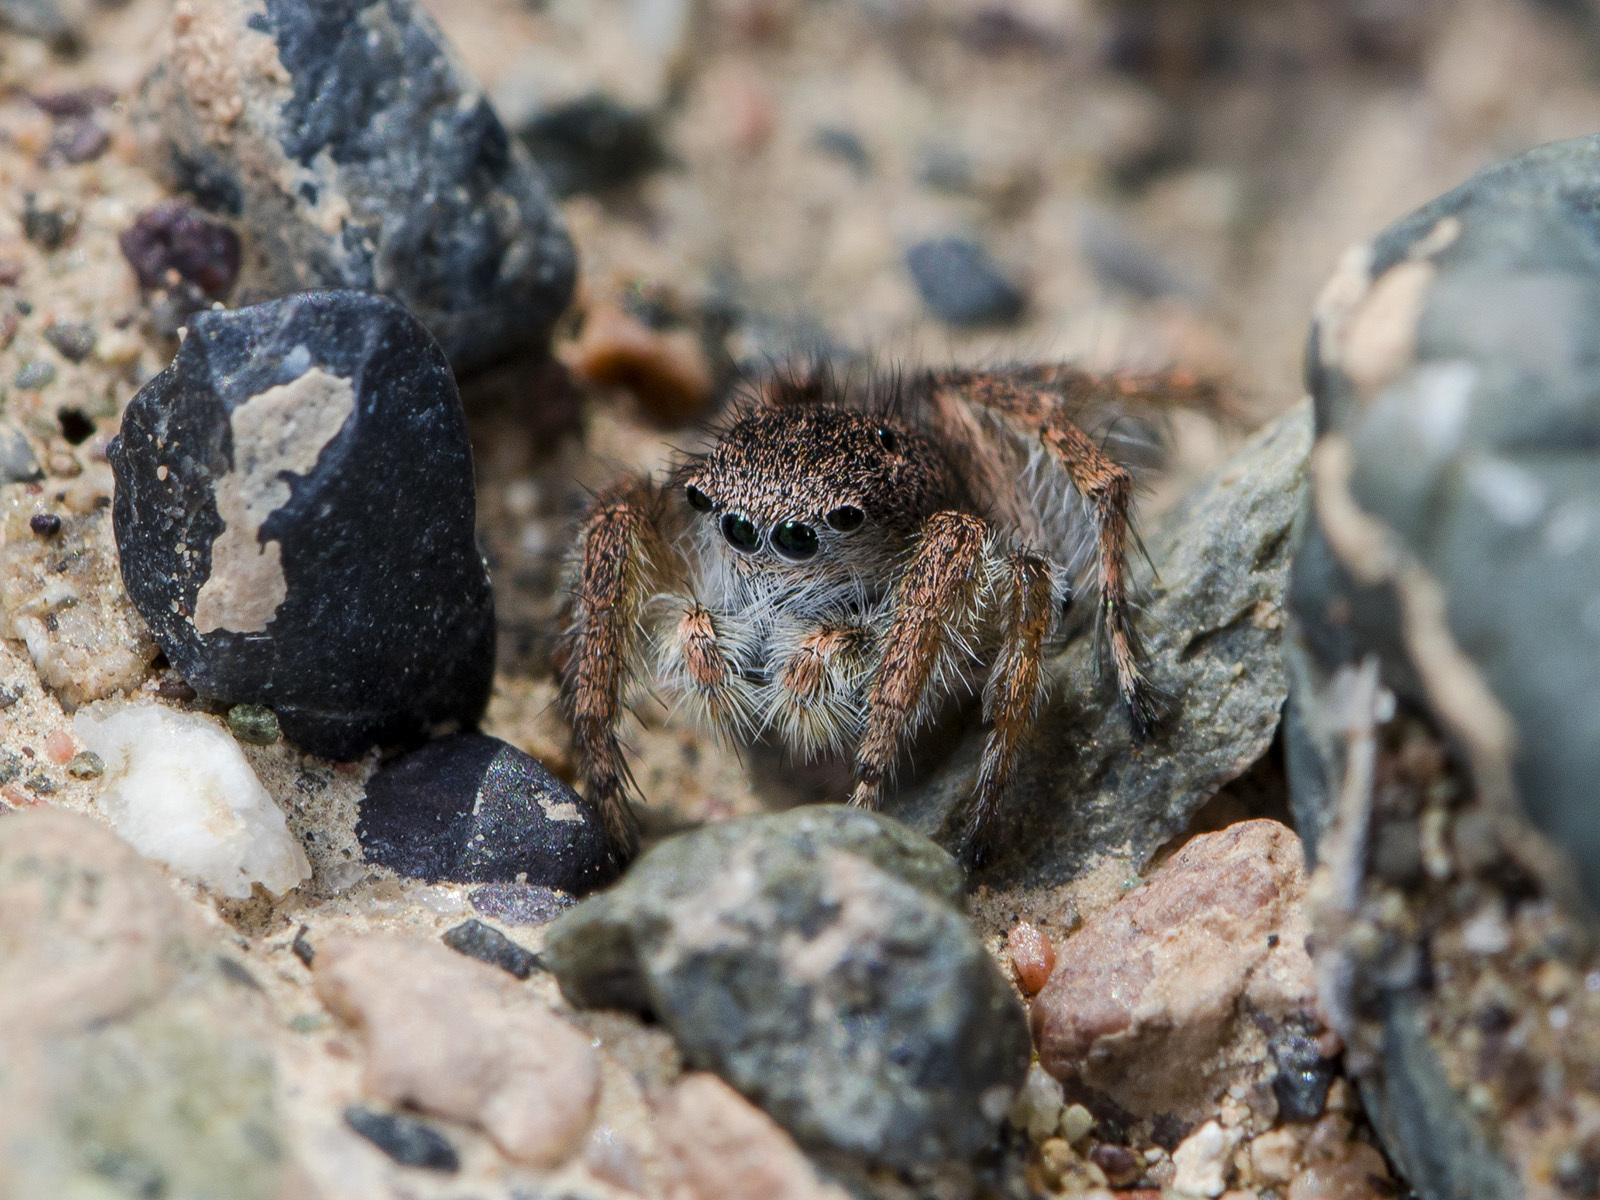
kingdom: Animalia
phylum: Arthropoda
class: Arachnida
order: Araneae
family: Salticidae
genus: Aelurillus
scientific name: Aelurillus dubatolovi
